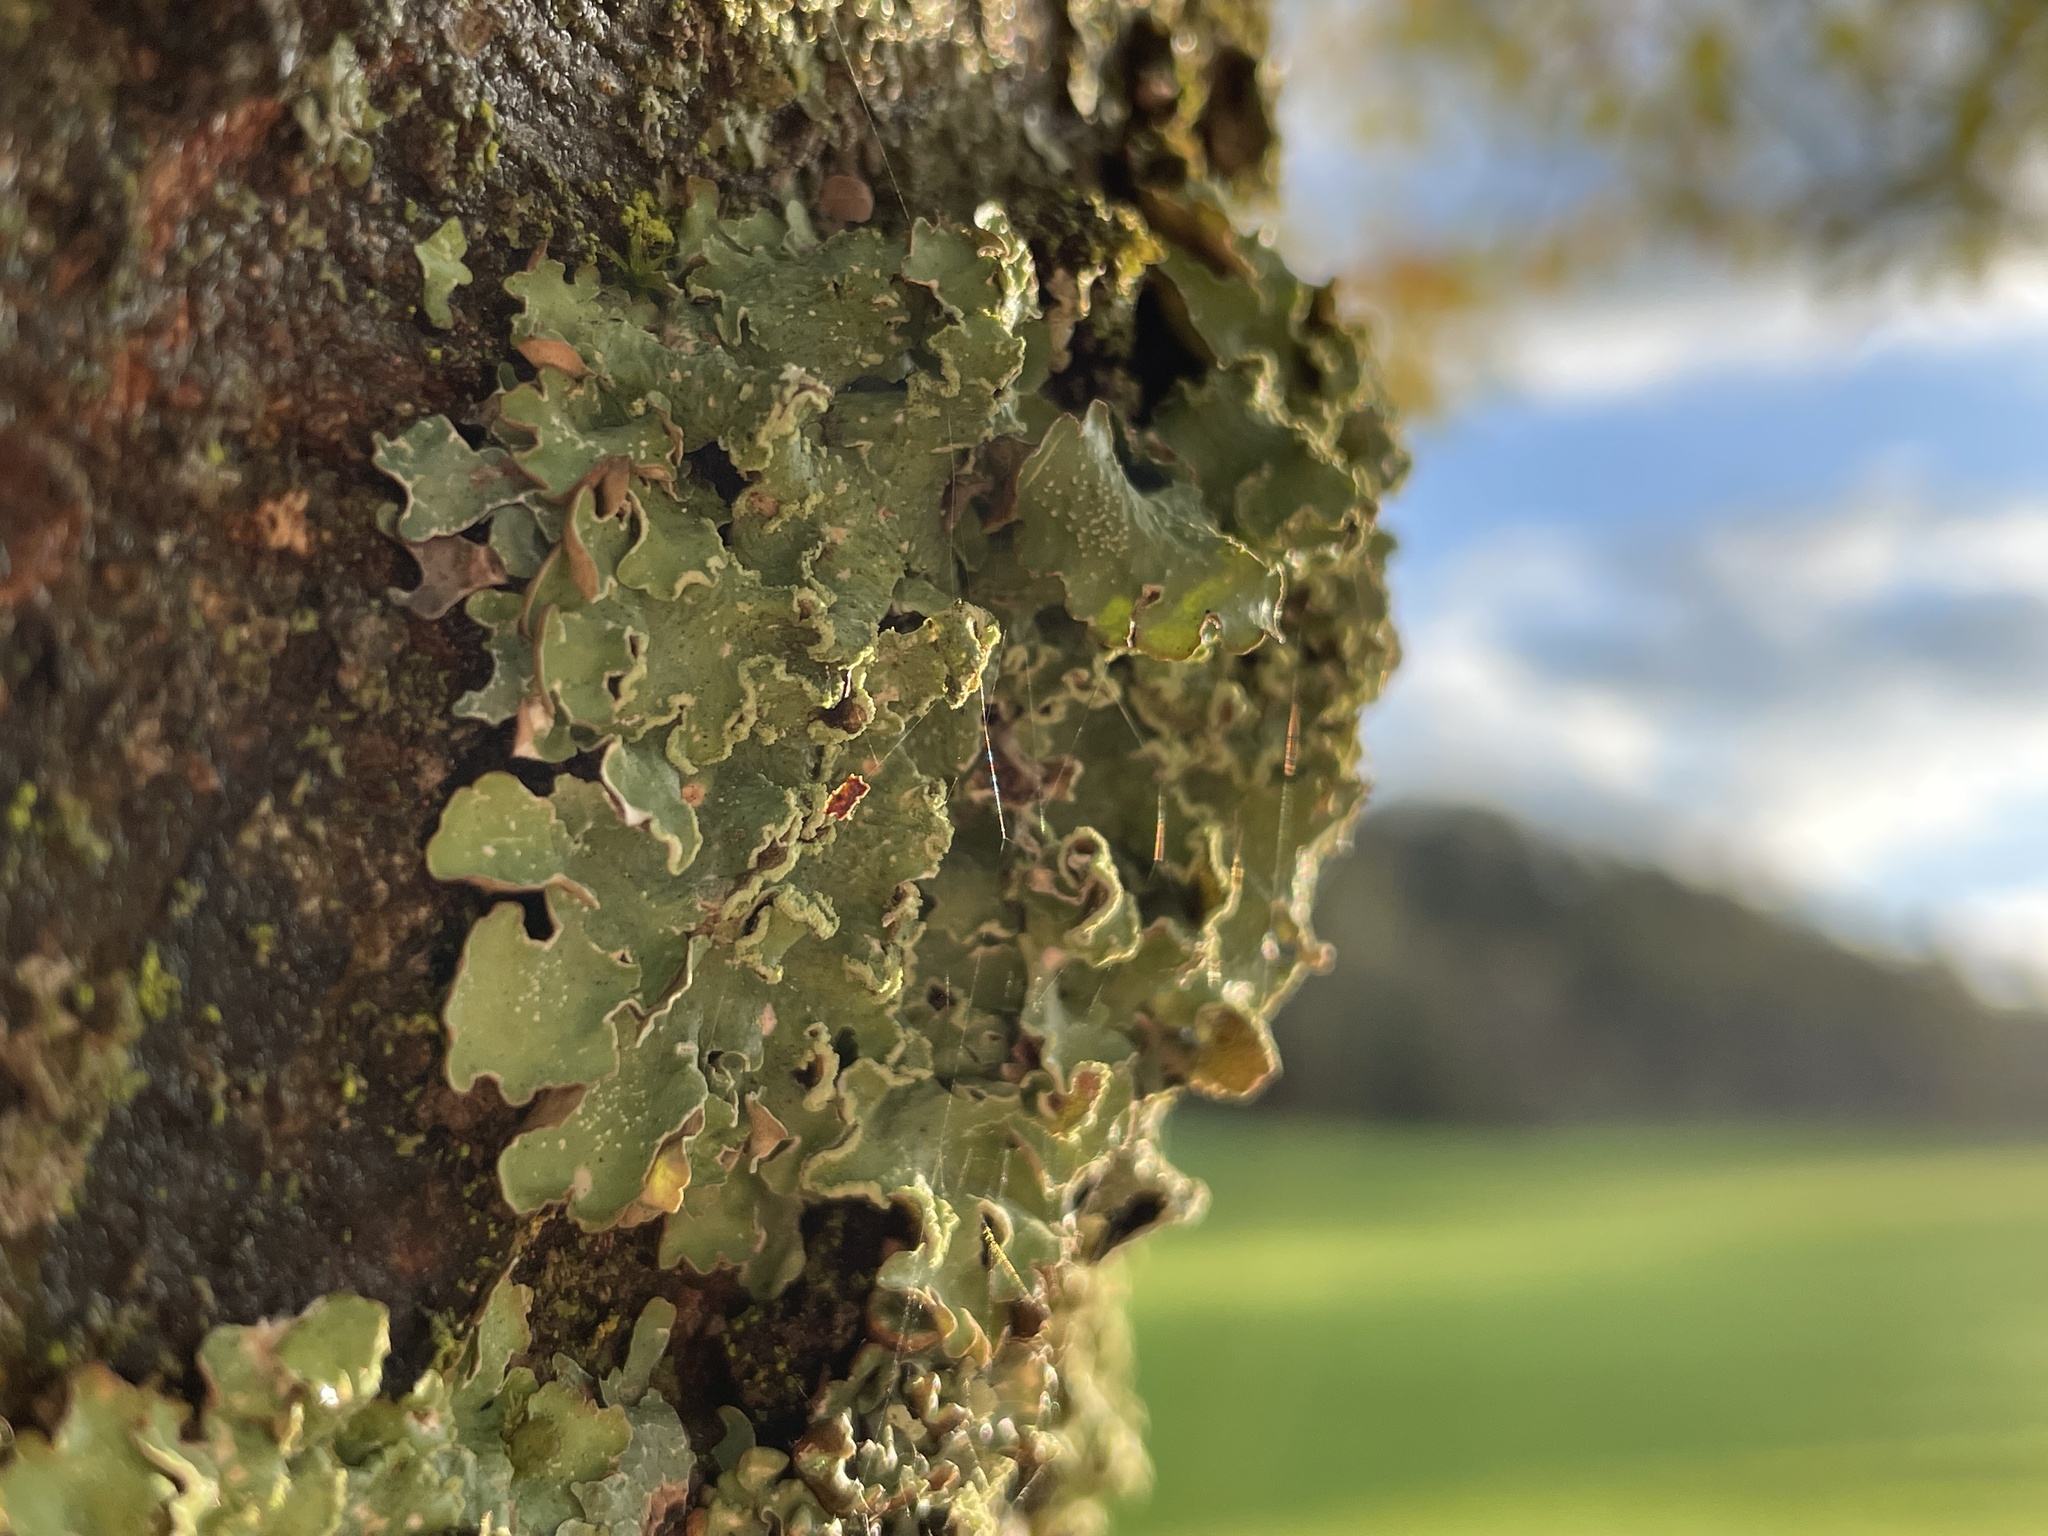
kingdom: Fungi
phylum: Ascomycota
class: Lecanoromycetes
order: Lecanorales
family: Parmeliaceae
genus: Punctelia
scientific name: Punctelia jeckeri
